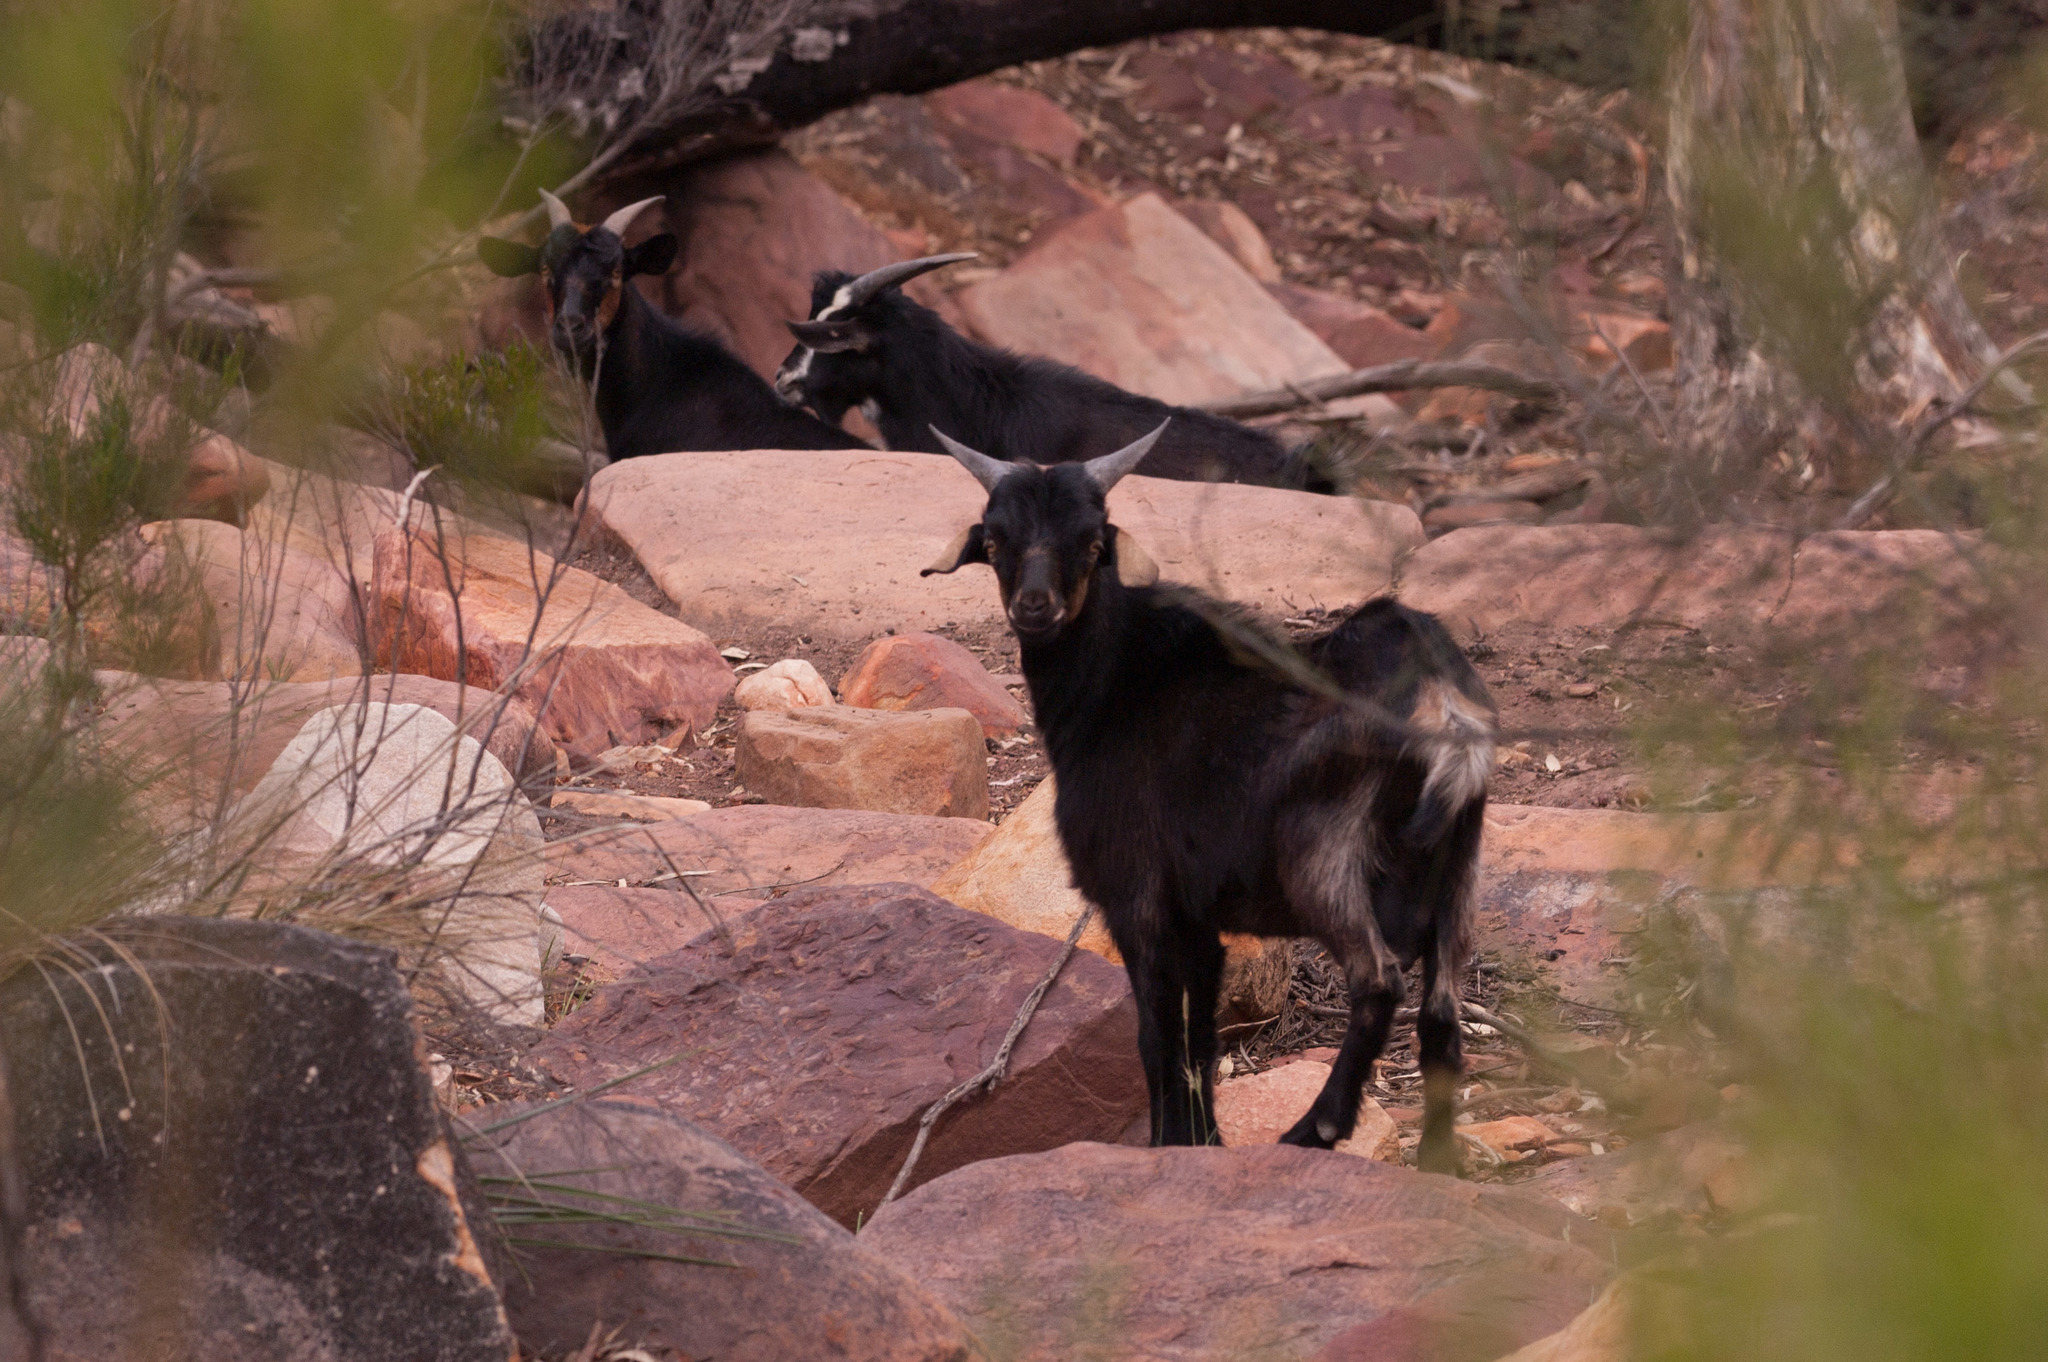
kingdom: Animalia
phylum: Chordata
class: Mammalia
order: Artiodactyla
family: Bovidae
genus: Capra
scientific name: Capra hircus
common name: Domestic goat
